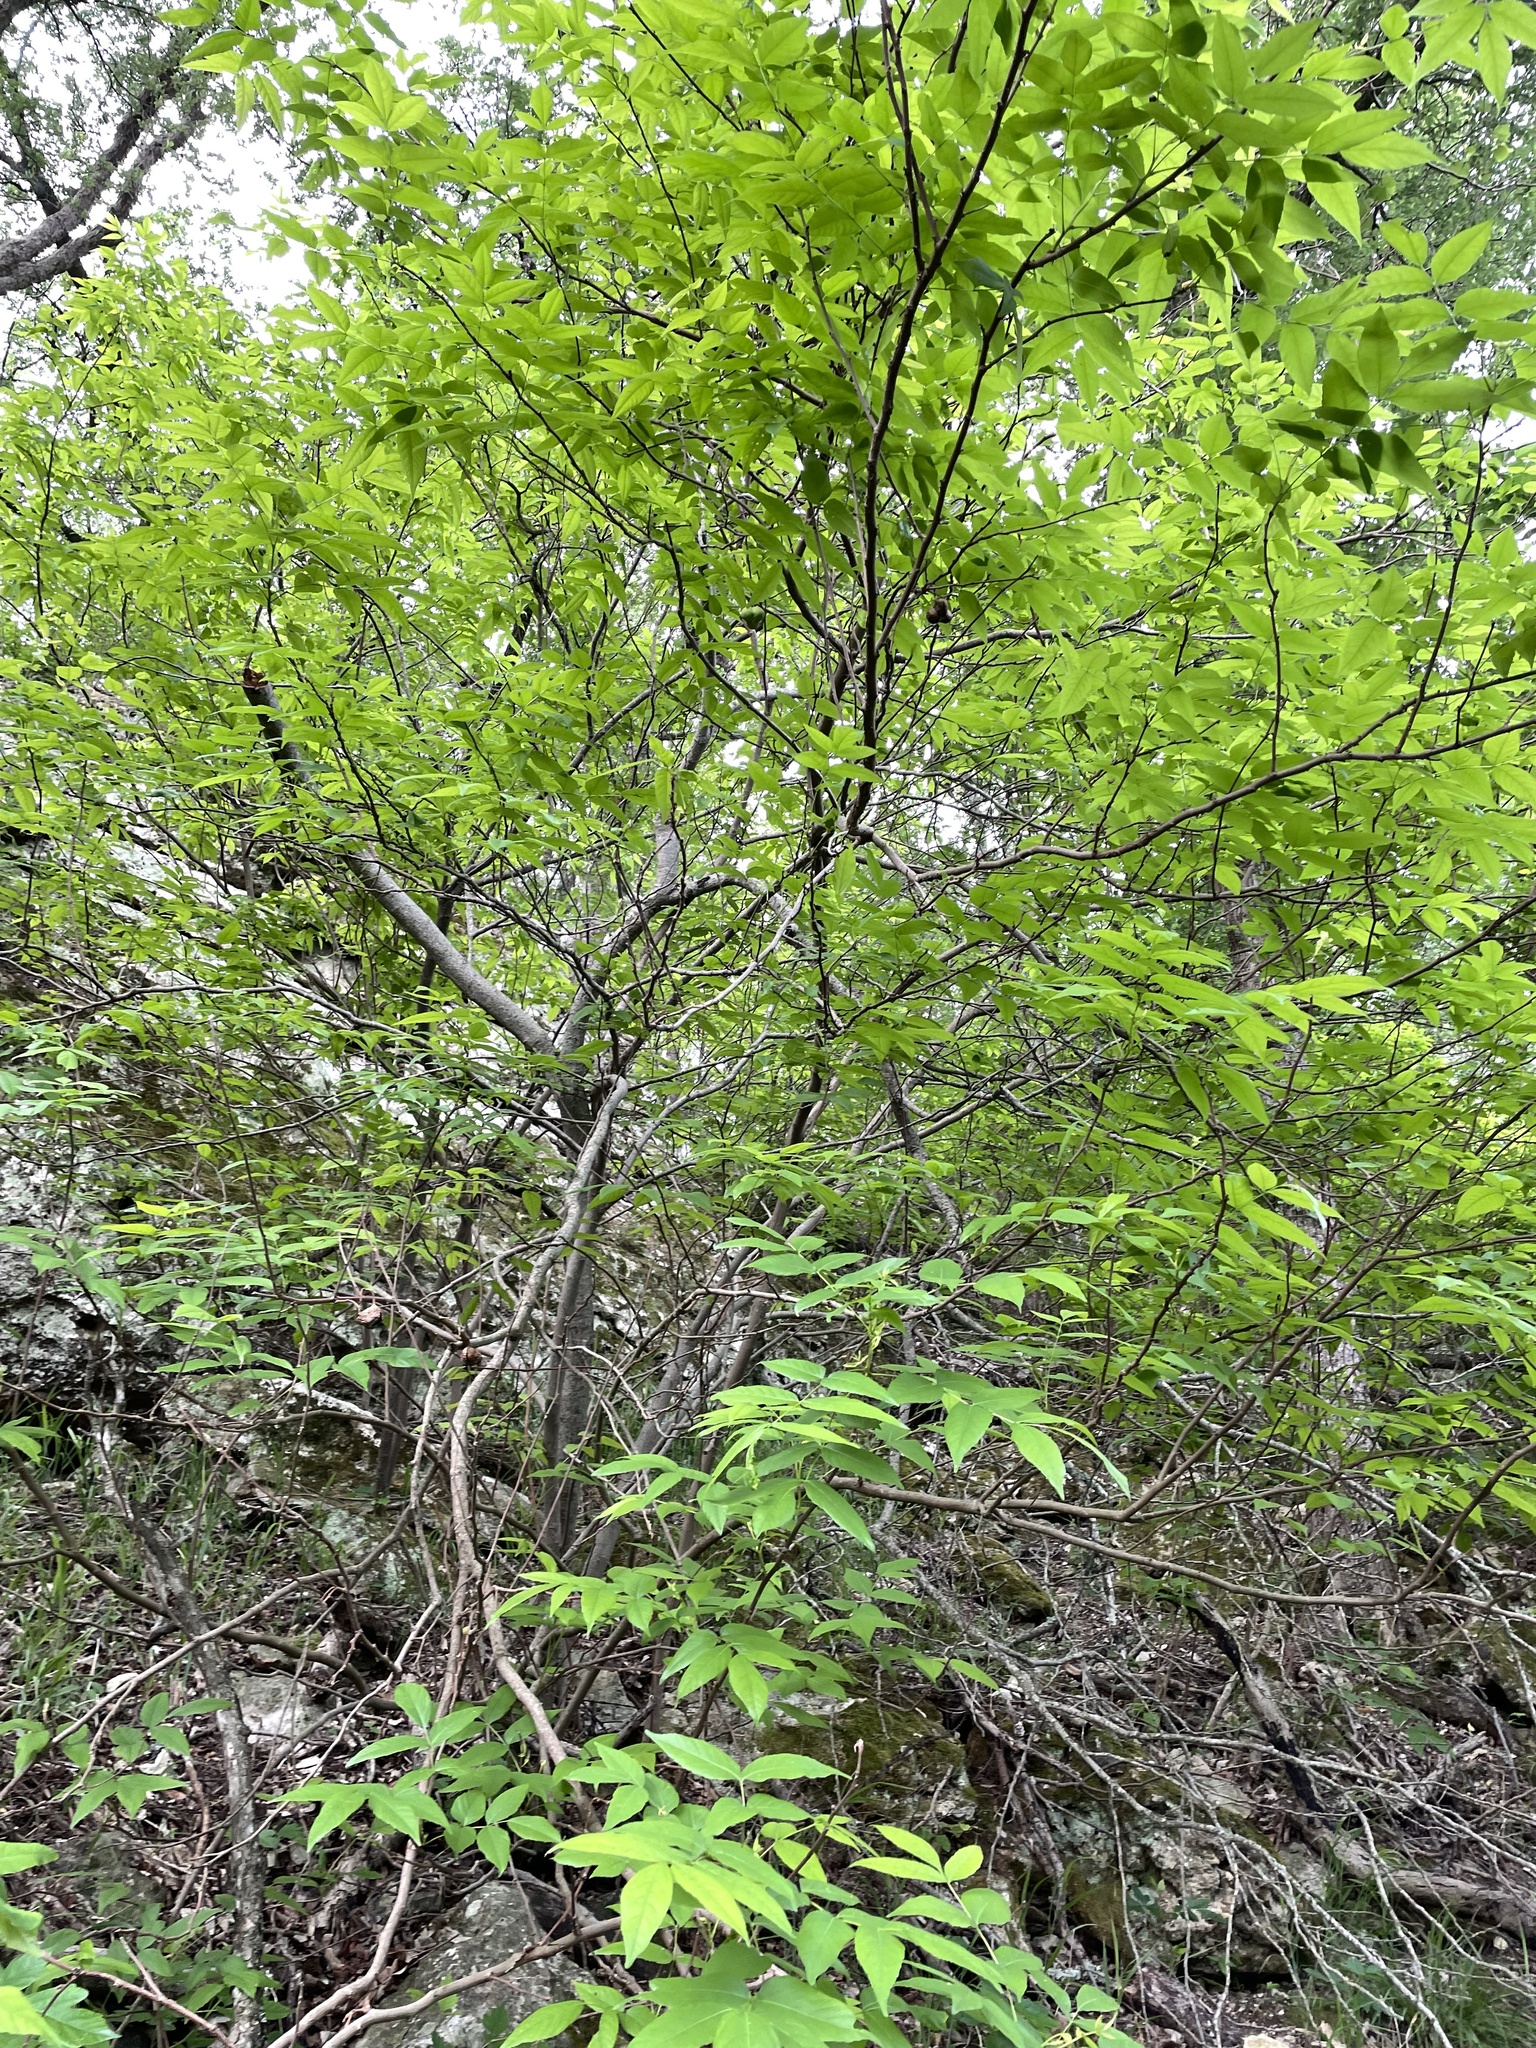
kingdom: Plantae
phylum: Tracheophyta
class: Magnoliopsida
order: Sapindales
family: Sapindaceae
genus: Ungnadia
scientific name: Ungnadia speciosa
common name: Texas-buckeye
